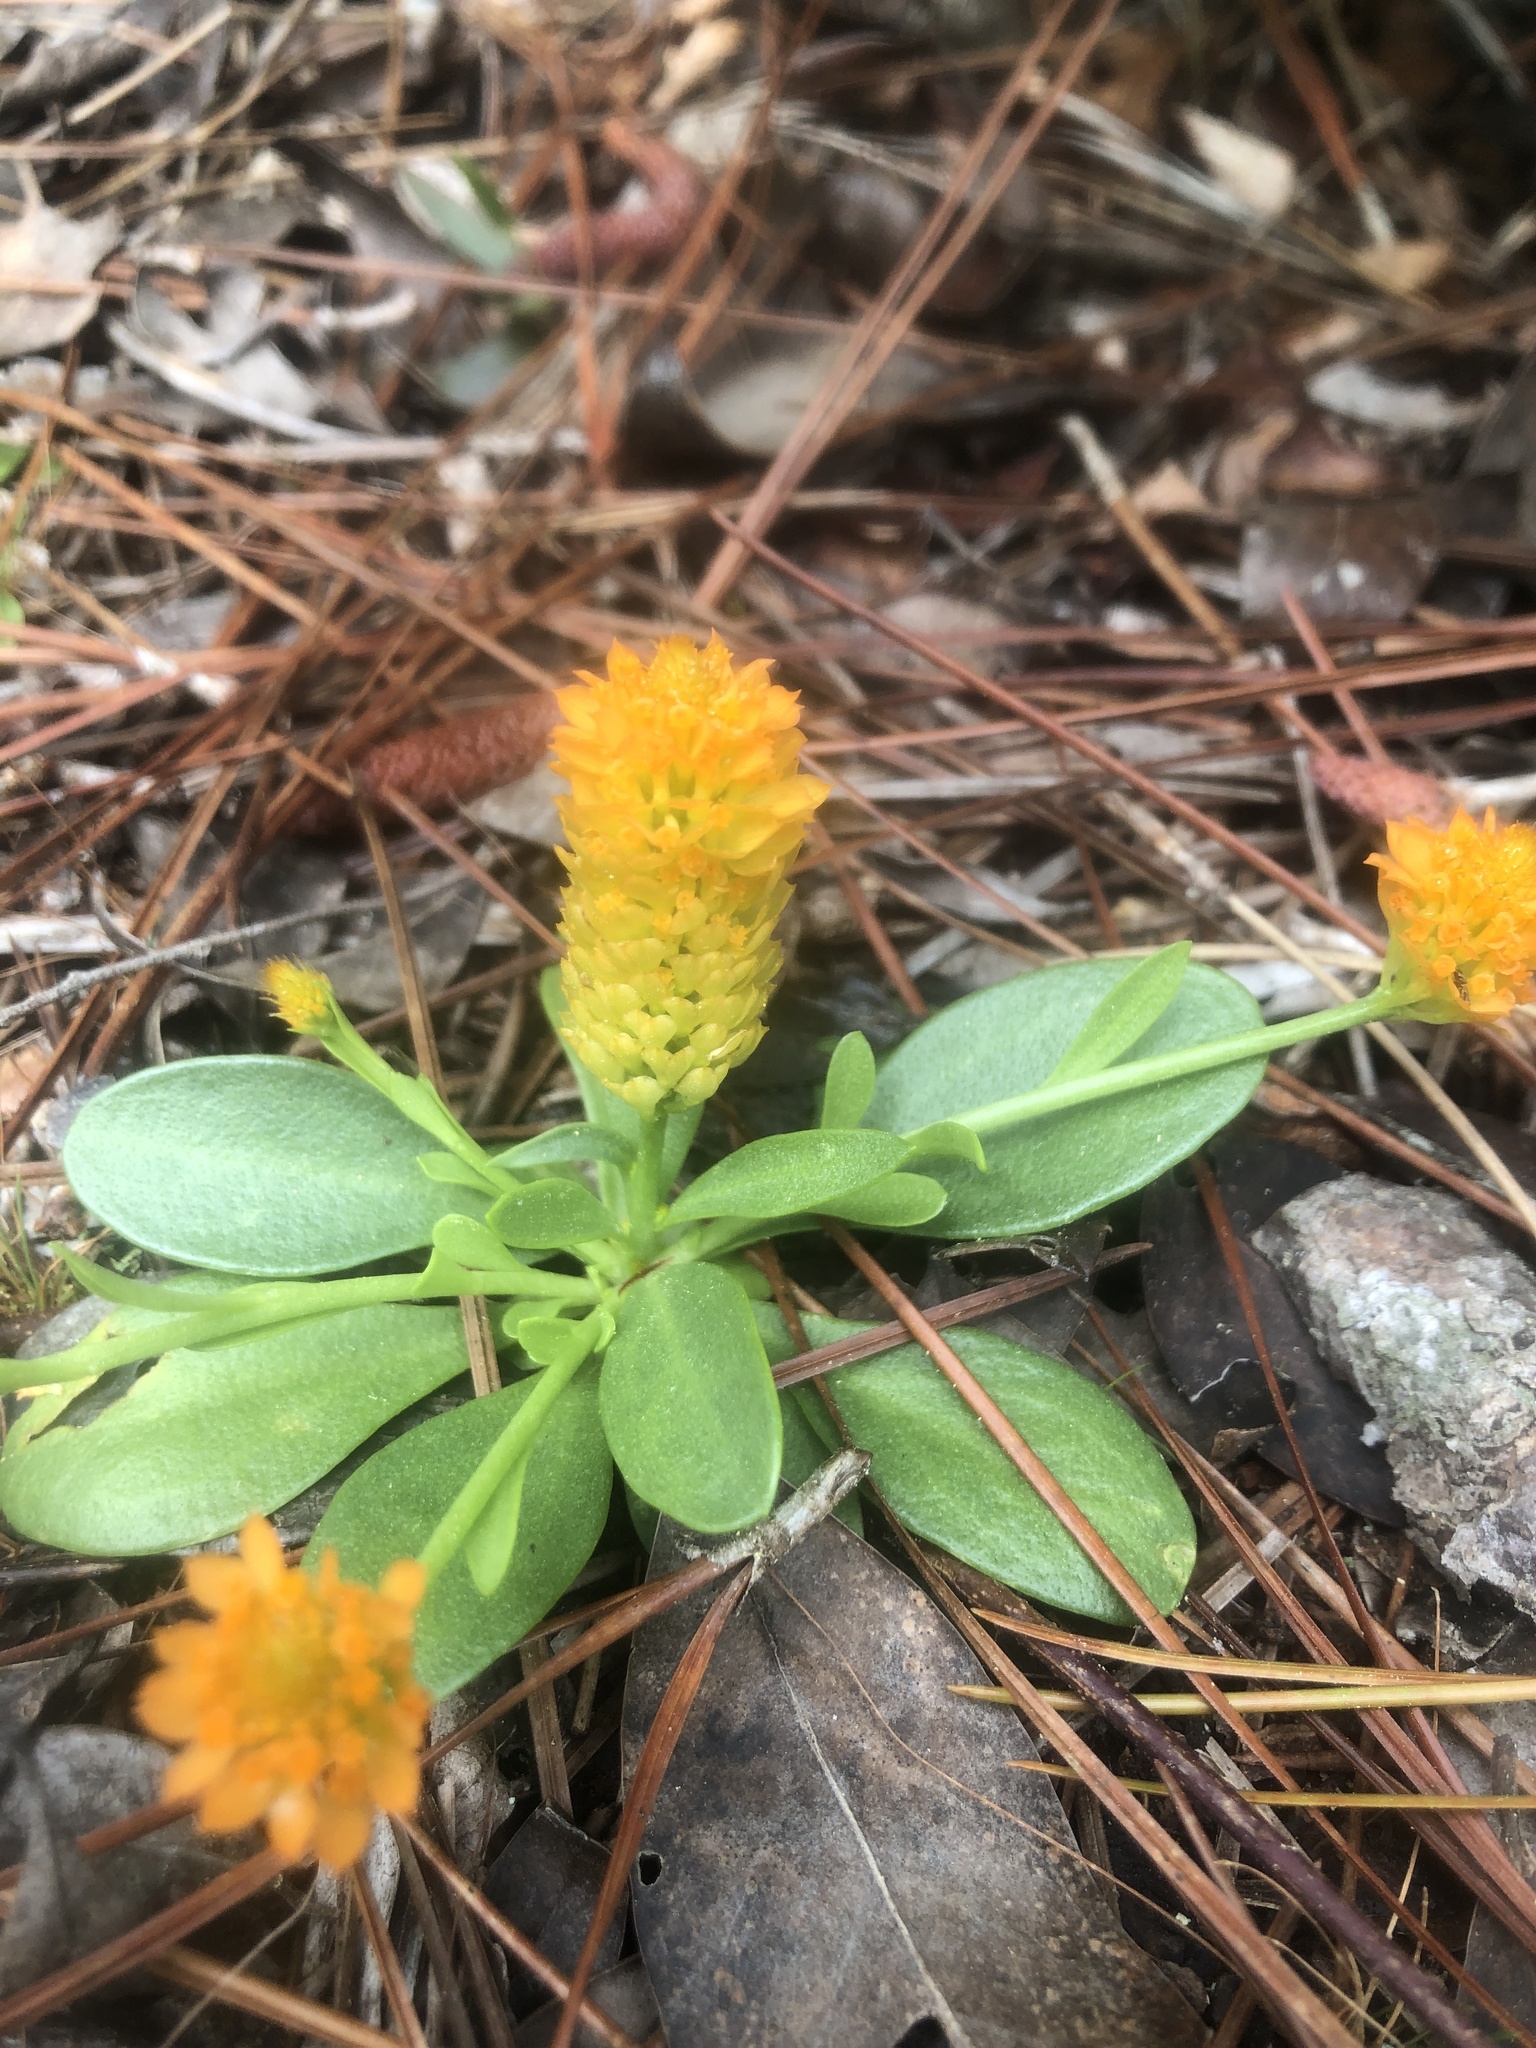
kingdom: Plantae
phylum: Tracheophyta
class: Magnoliopsida
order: Fabales
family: Polygalaceae
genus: Polygala
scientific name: Polygala lutea
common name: Orange milkwort
